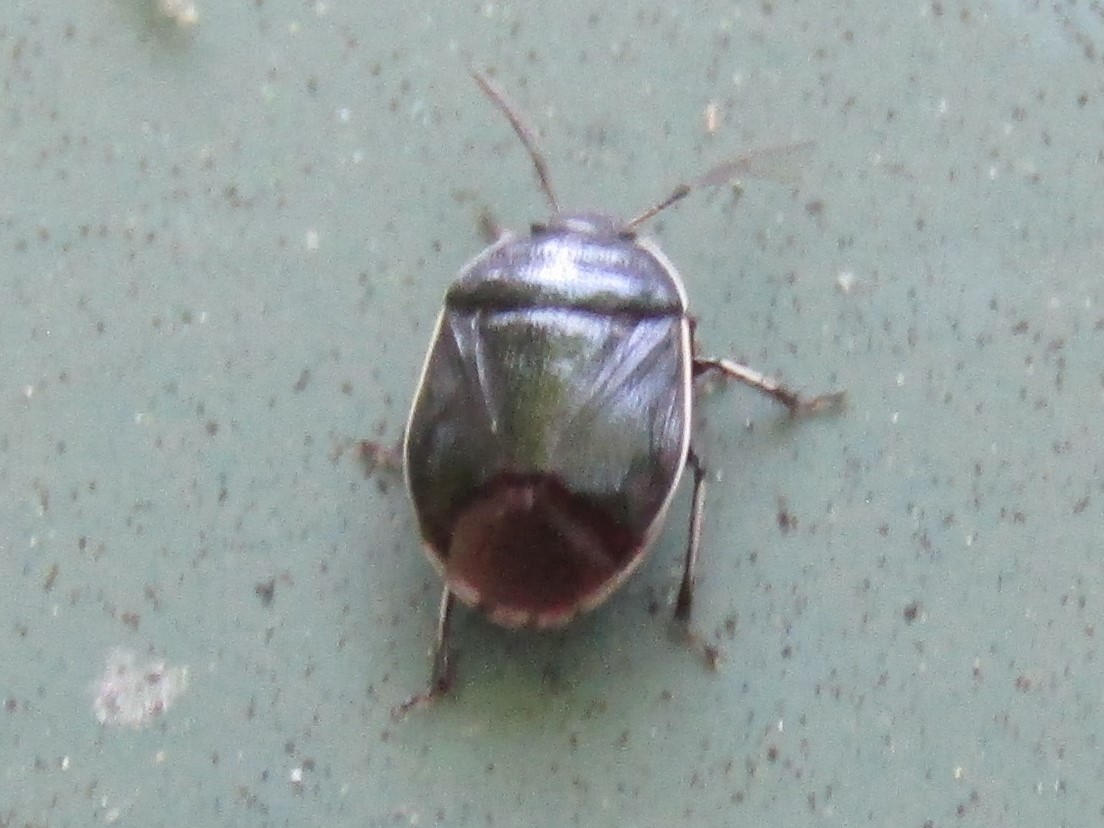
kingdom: Animalia
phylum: Arthropoda
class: Insecta
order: Hemiptera
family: Cydnidae
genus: Sehirus
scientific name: Sehirus cinctus
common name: White-margined burrower bug
